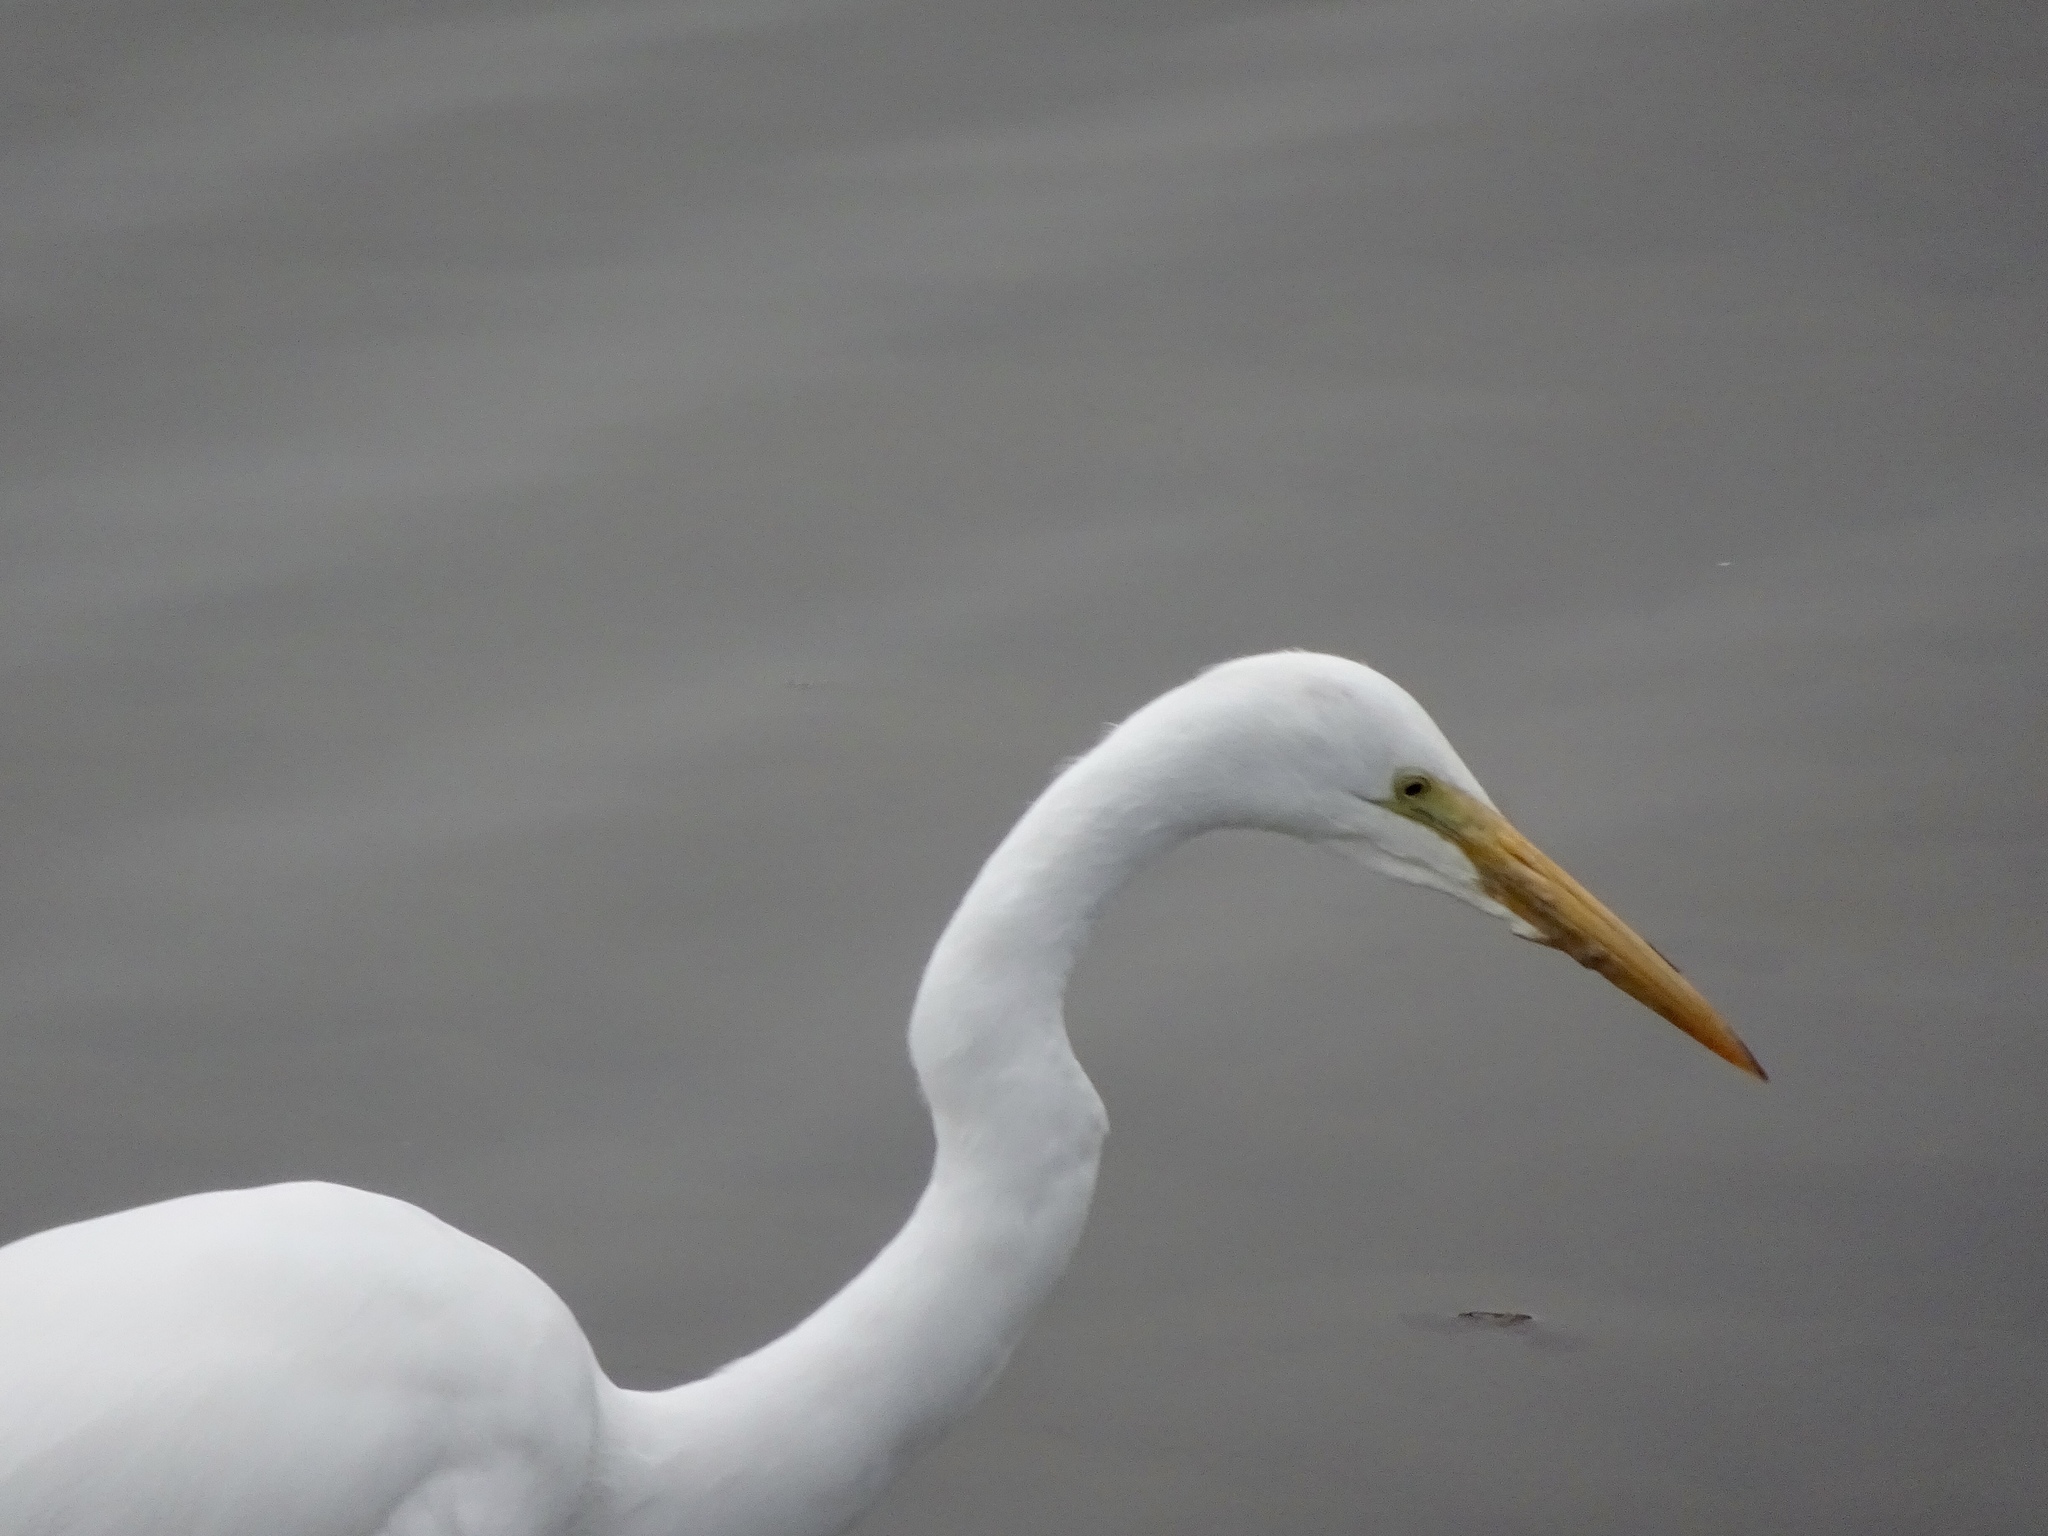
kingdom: Animalia
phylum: Chordata
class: Aves
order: Pelecaniformes
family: Ardeidae
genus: Ardea
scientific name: Ardea alba
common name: Great egret
